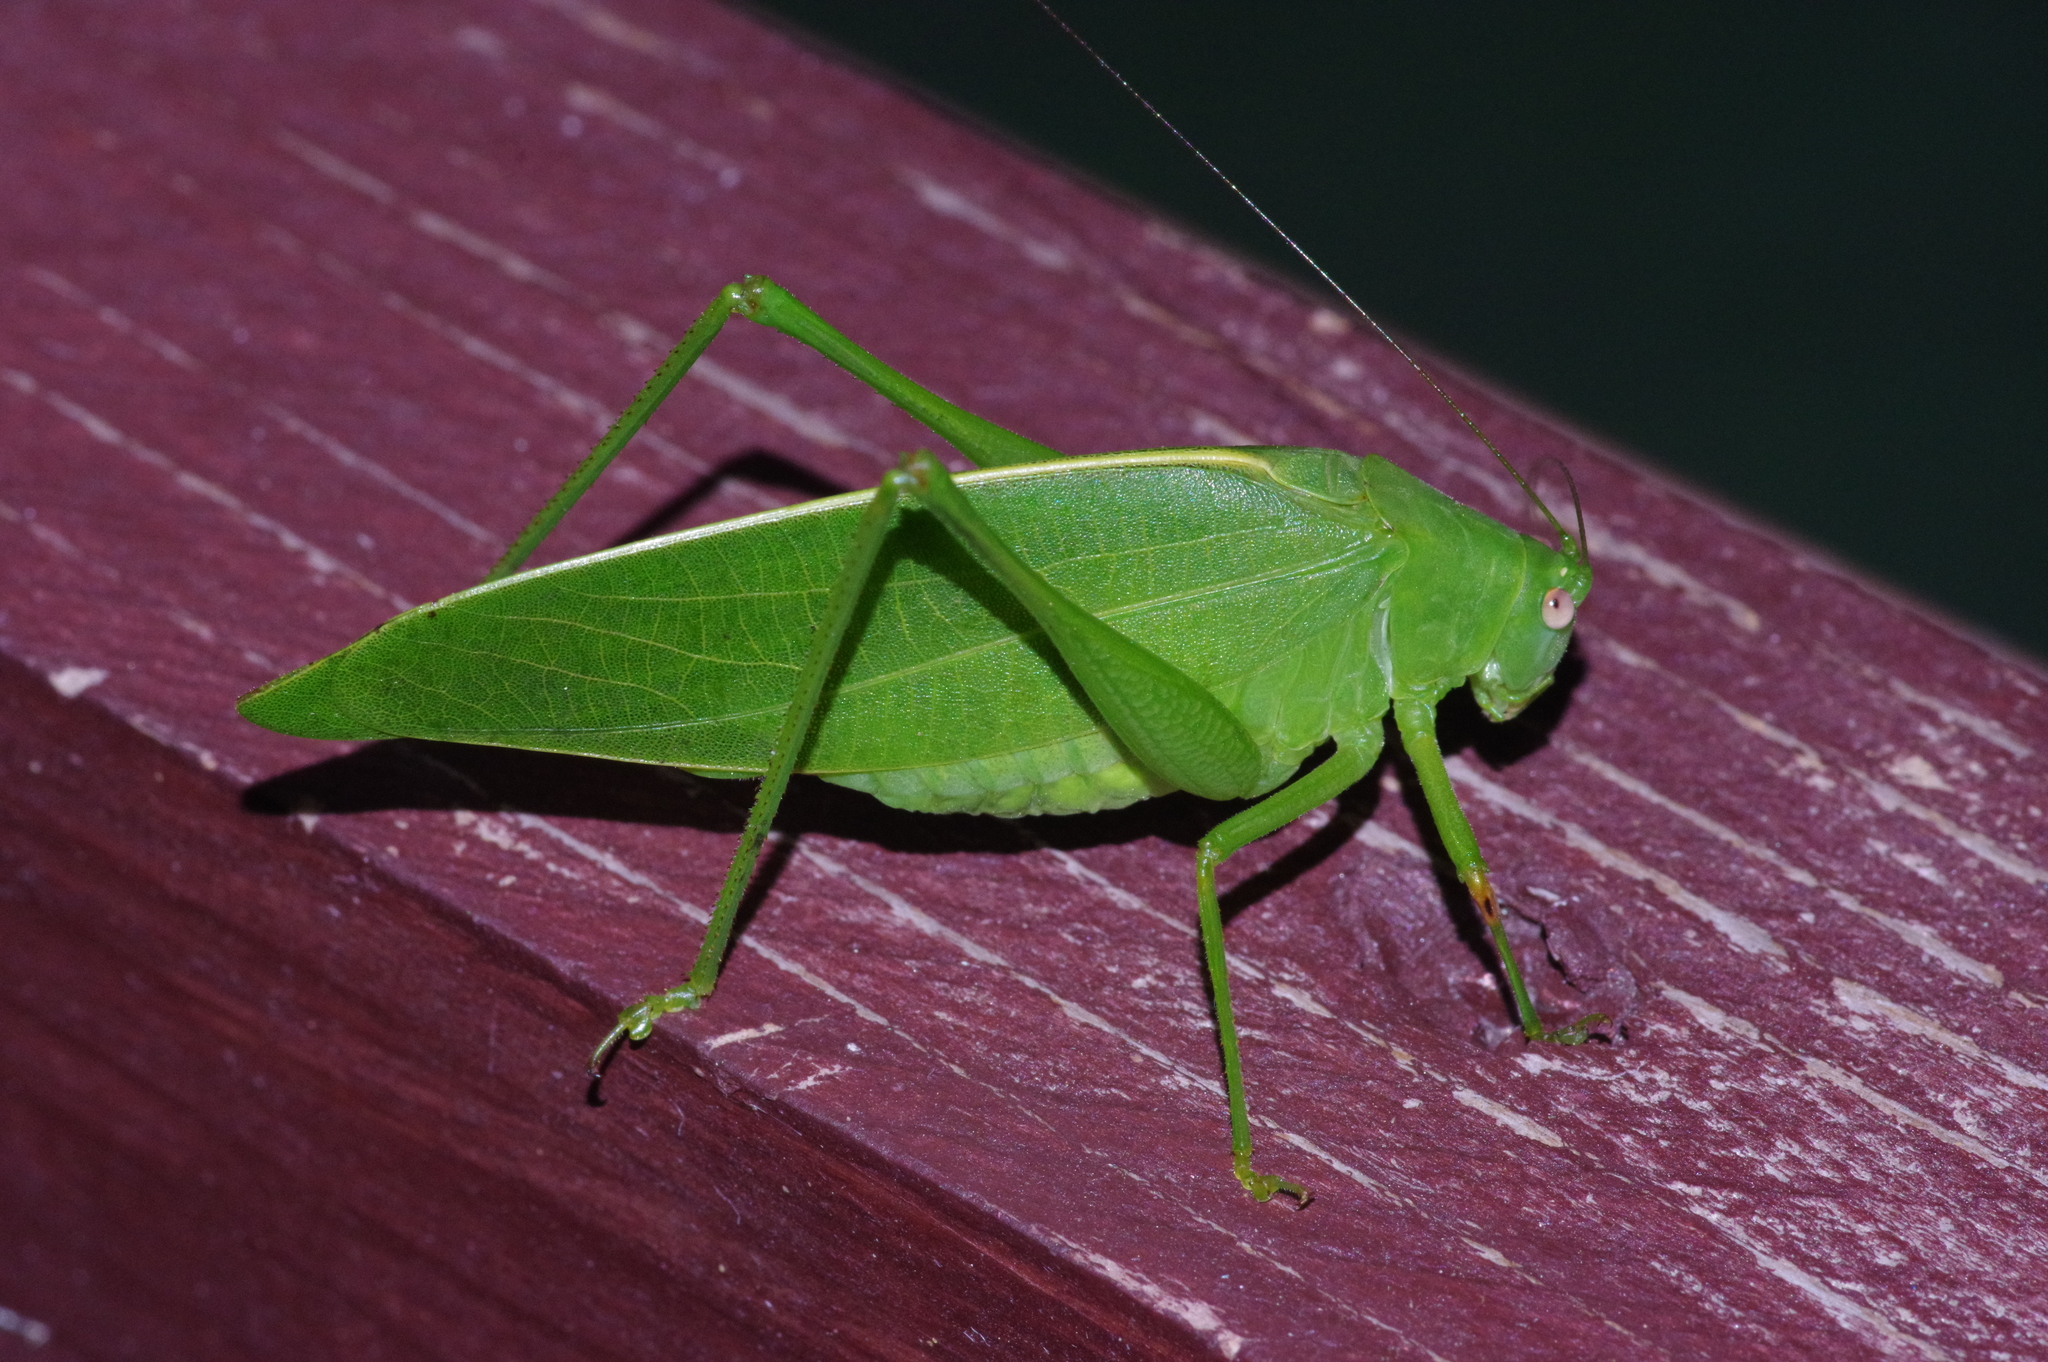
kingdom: Animalia
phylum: Arthropoda
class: Insecta
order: Orthoptera
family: Tettigoniidae
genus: Phaulula
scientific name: Phaulula daitoensis
